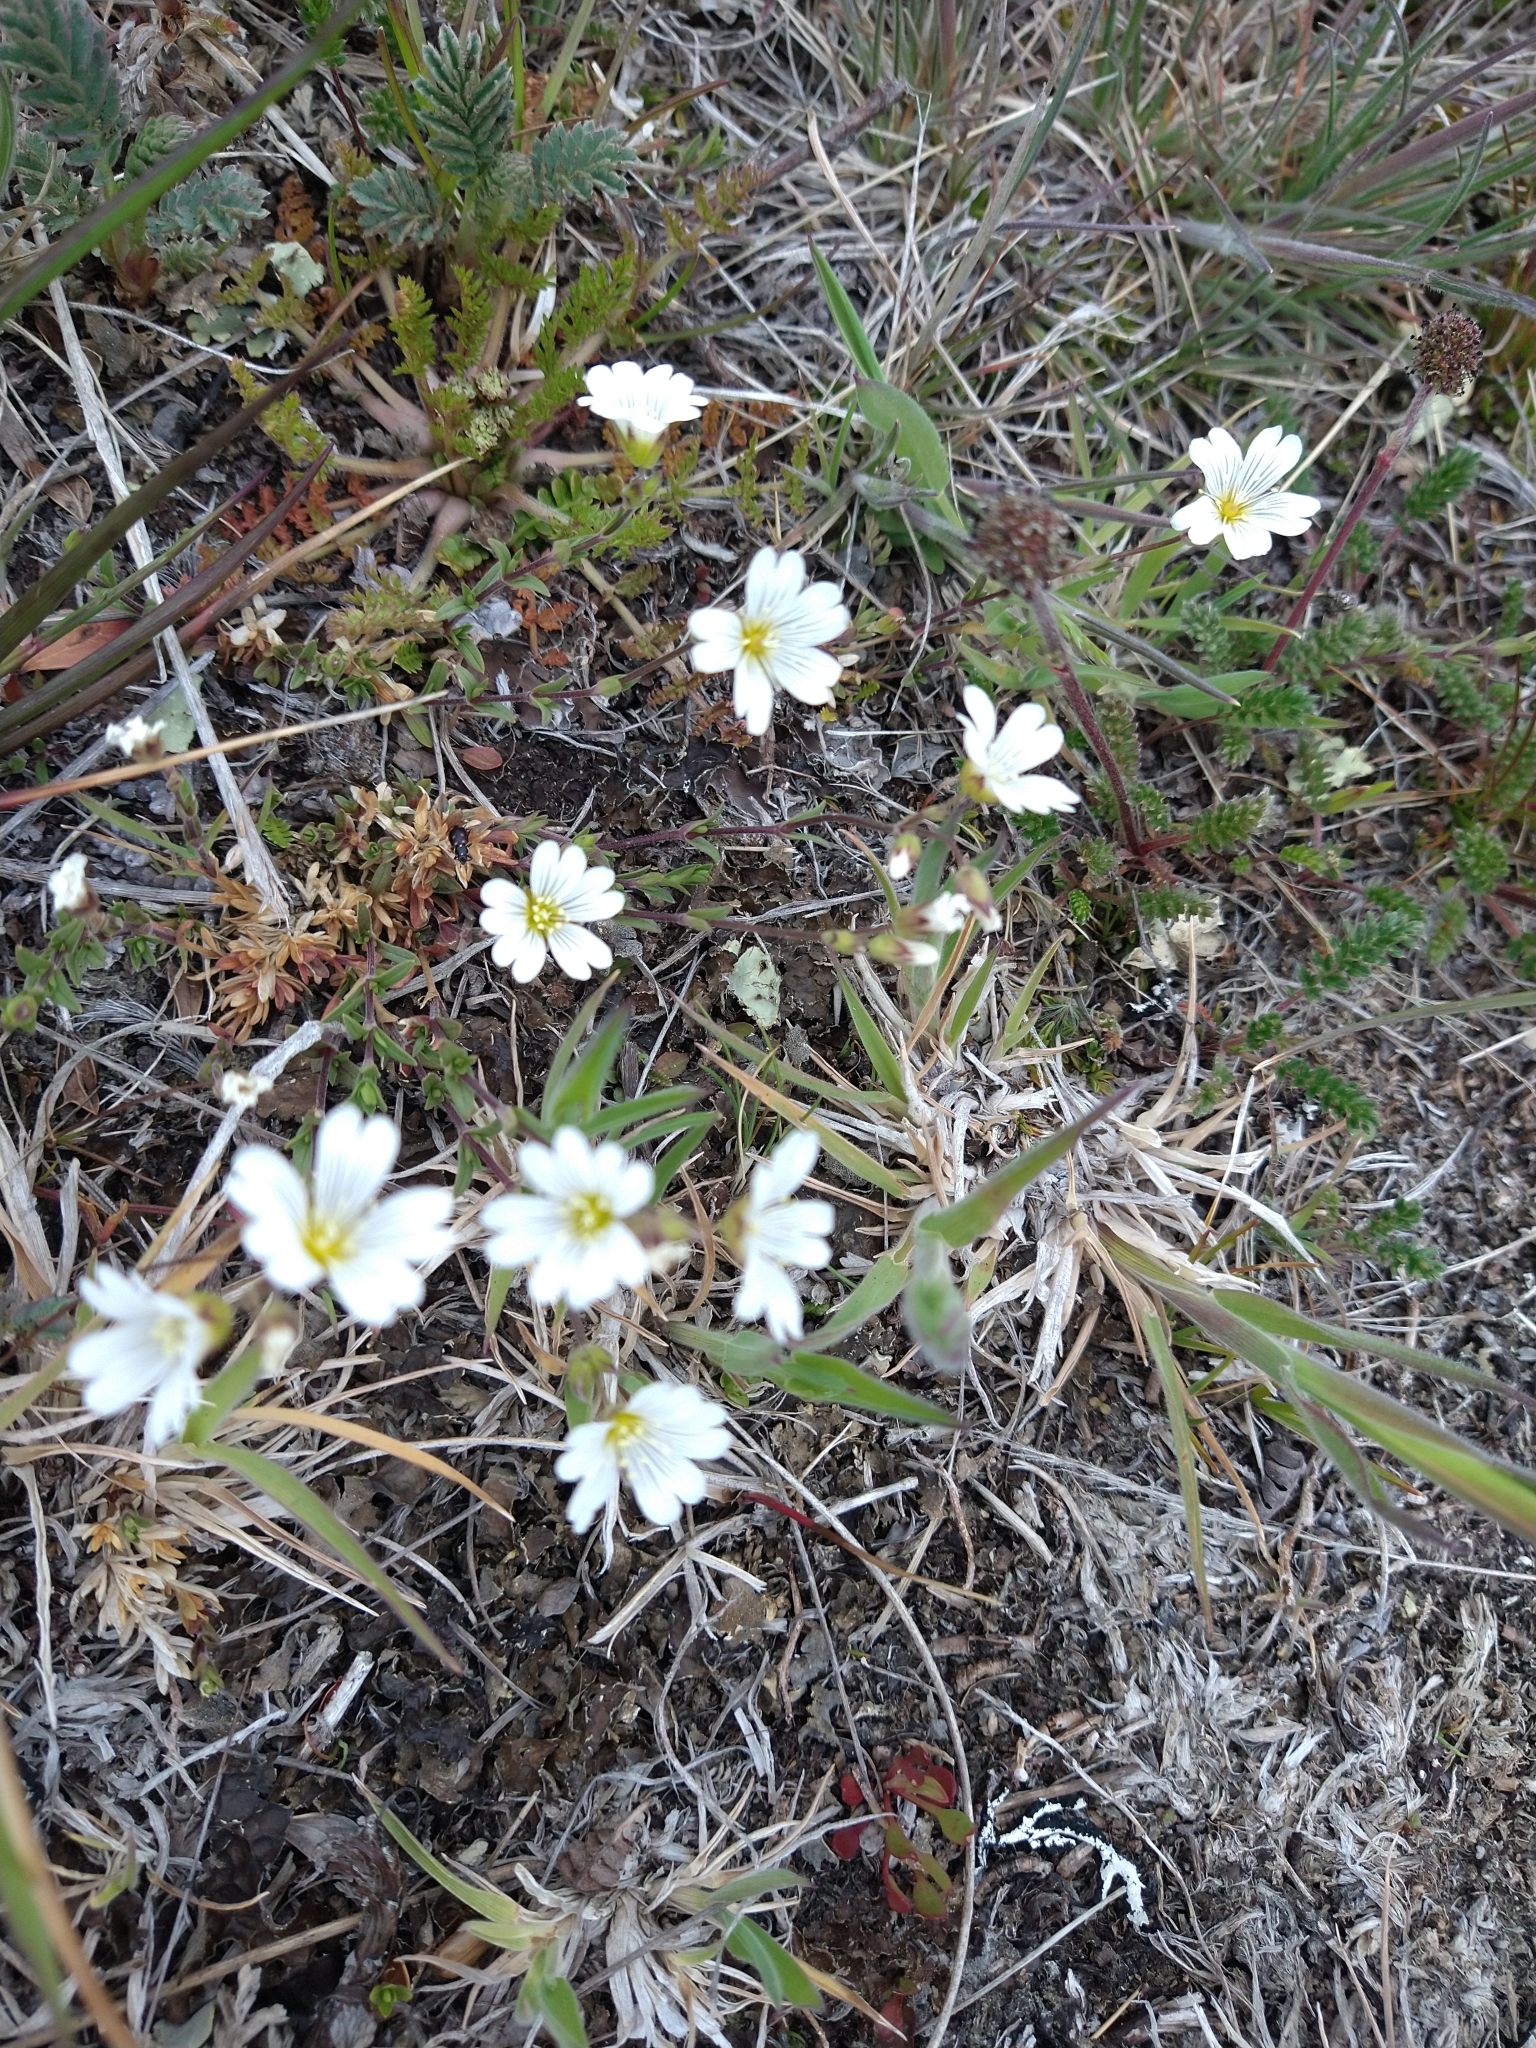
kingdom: Plantae
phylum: Tracheophyta
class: Magnoliopsida
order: Caryophyllales
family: Caryophyllaceae
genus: Cerastium
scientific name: Cerastium arvense
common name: Field mouse-ear
